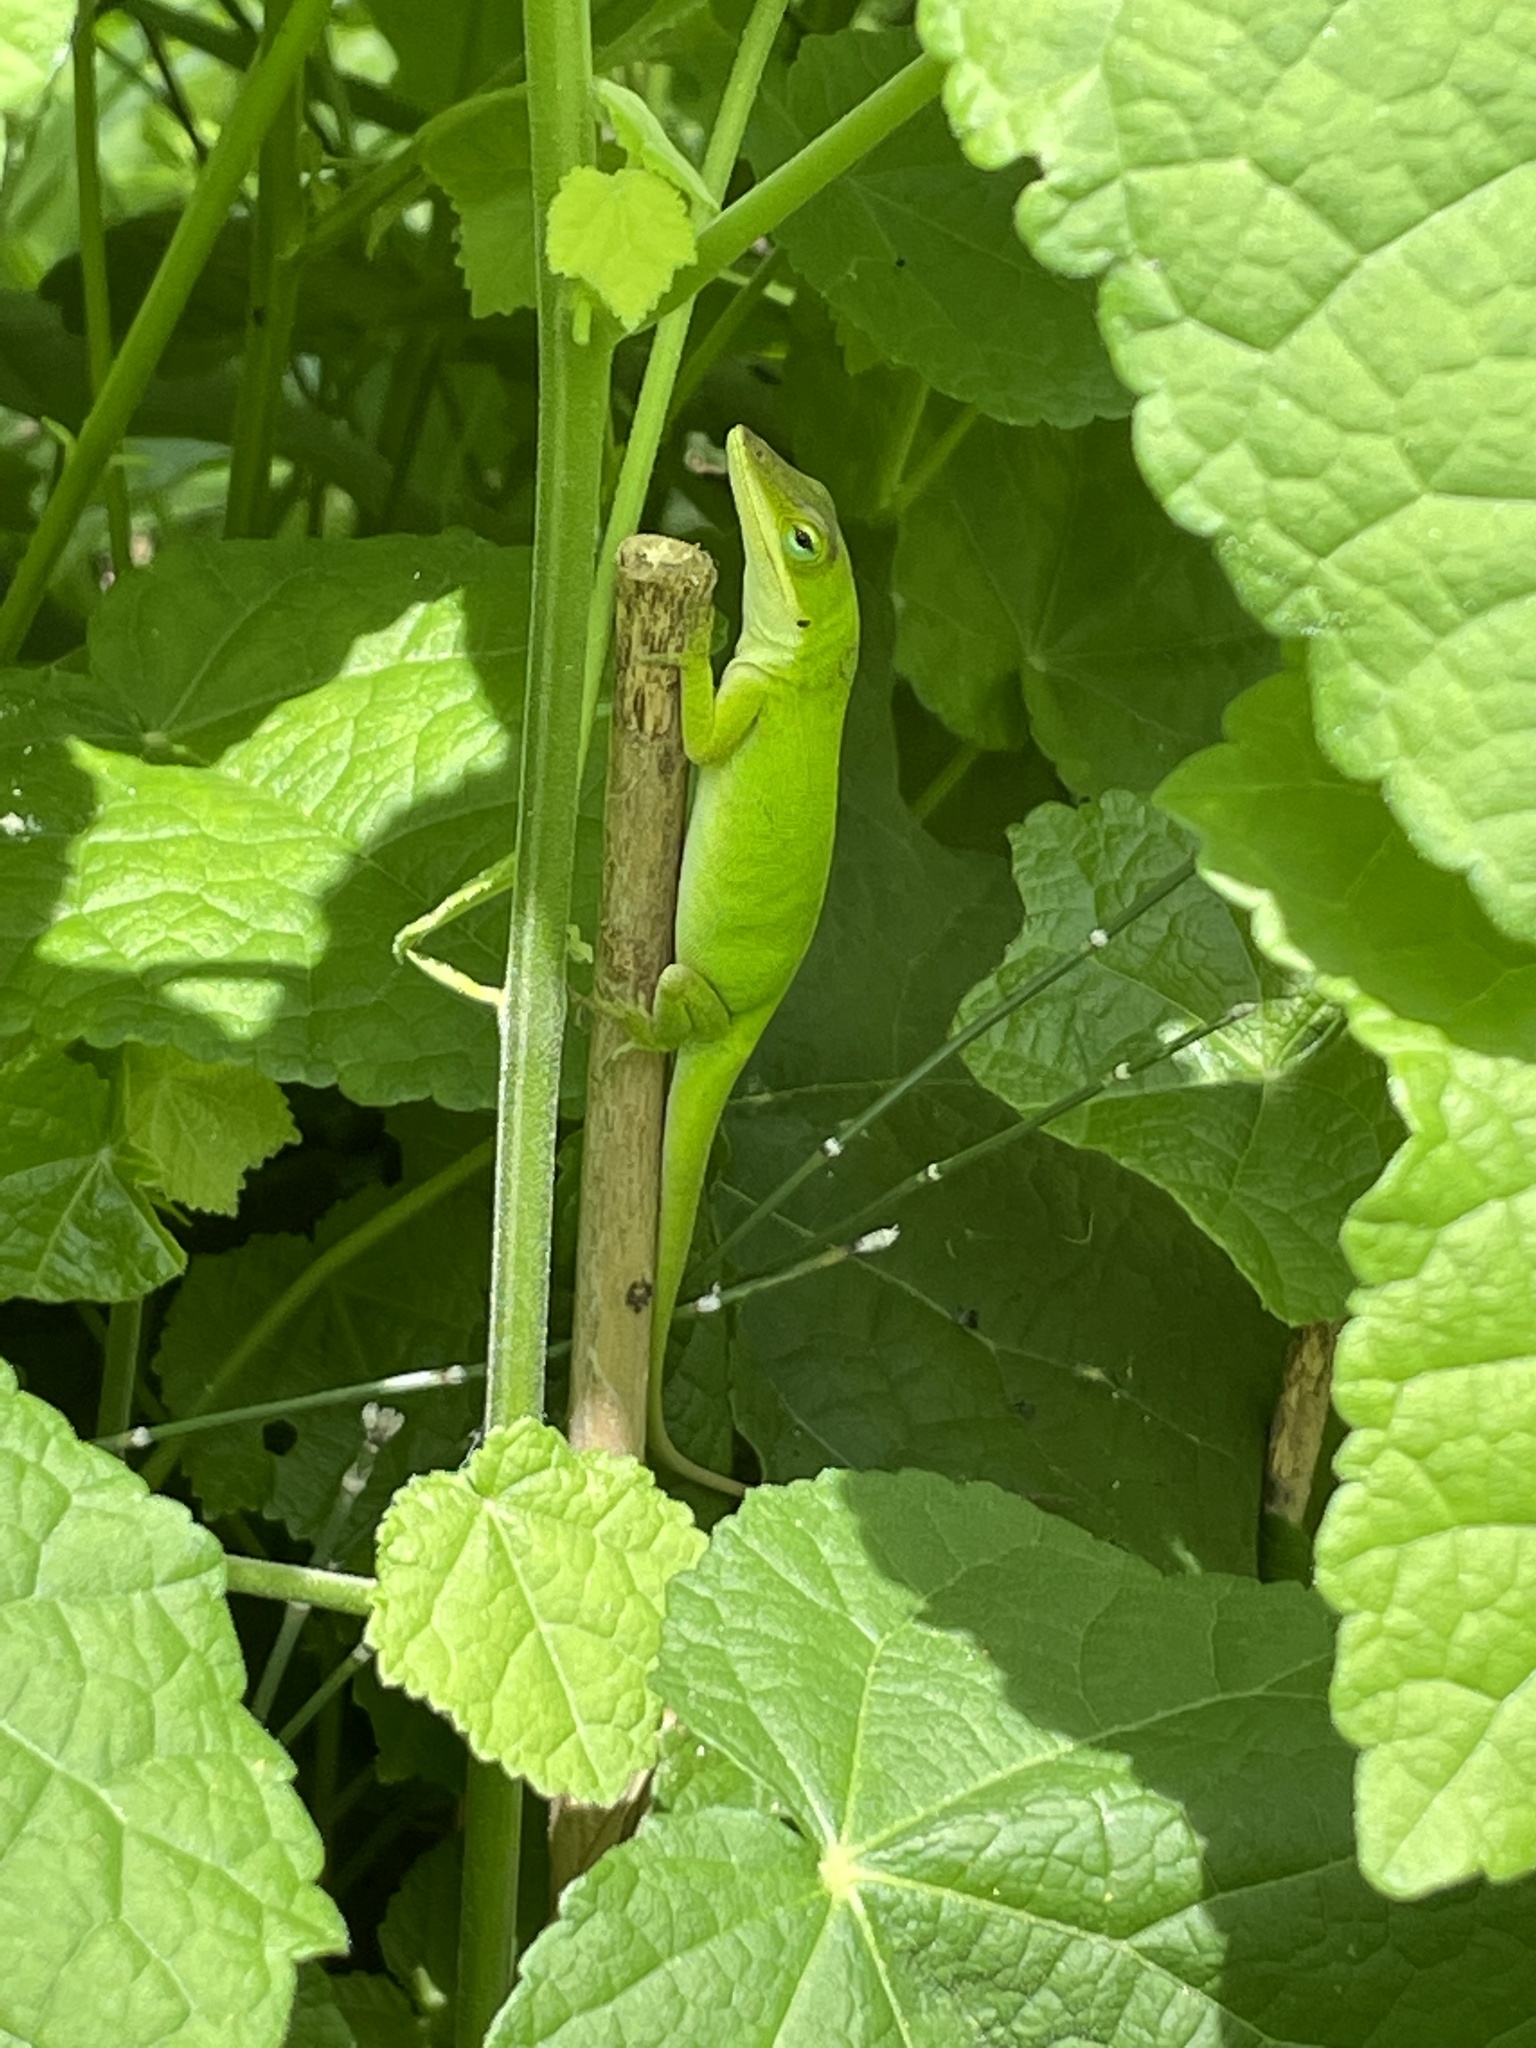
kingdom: Animalia
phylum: Chordata
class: Squamata
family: Dactyloidae
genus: Anolis
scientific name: Anolis carolinensis
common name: Green anole
